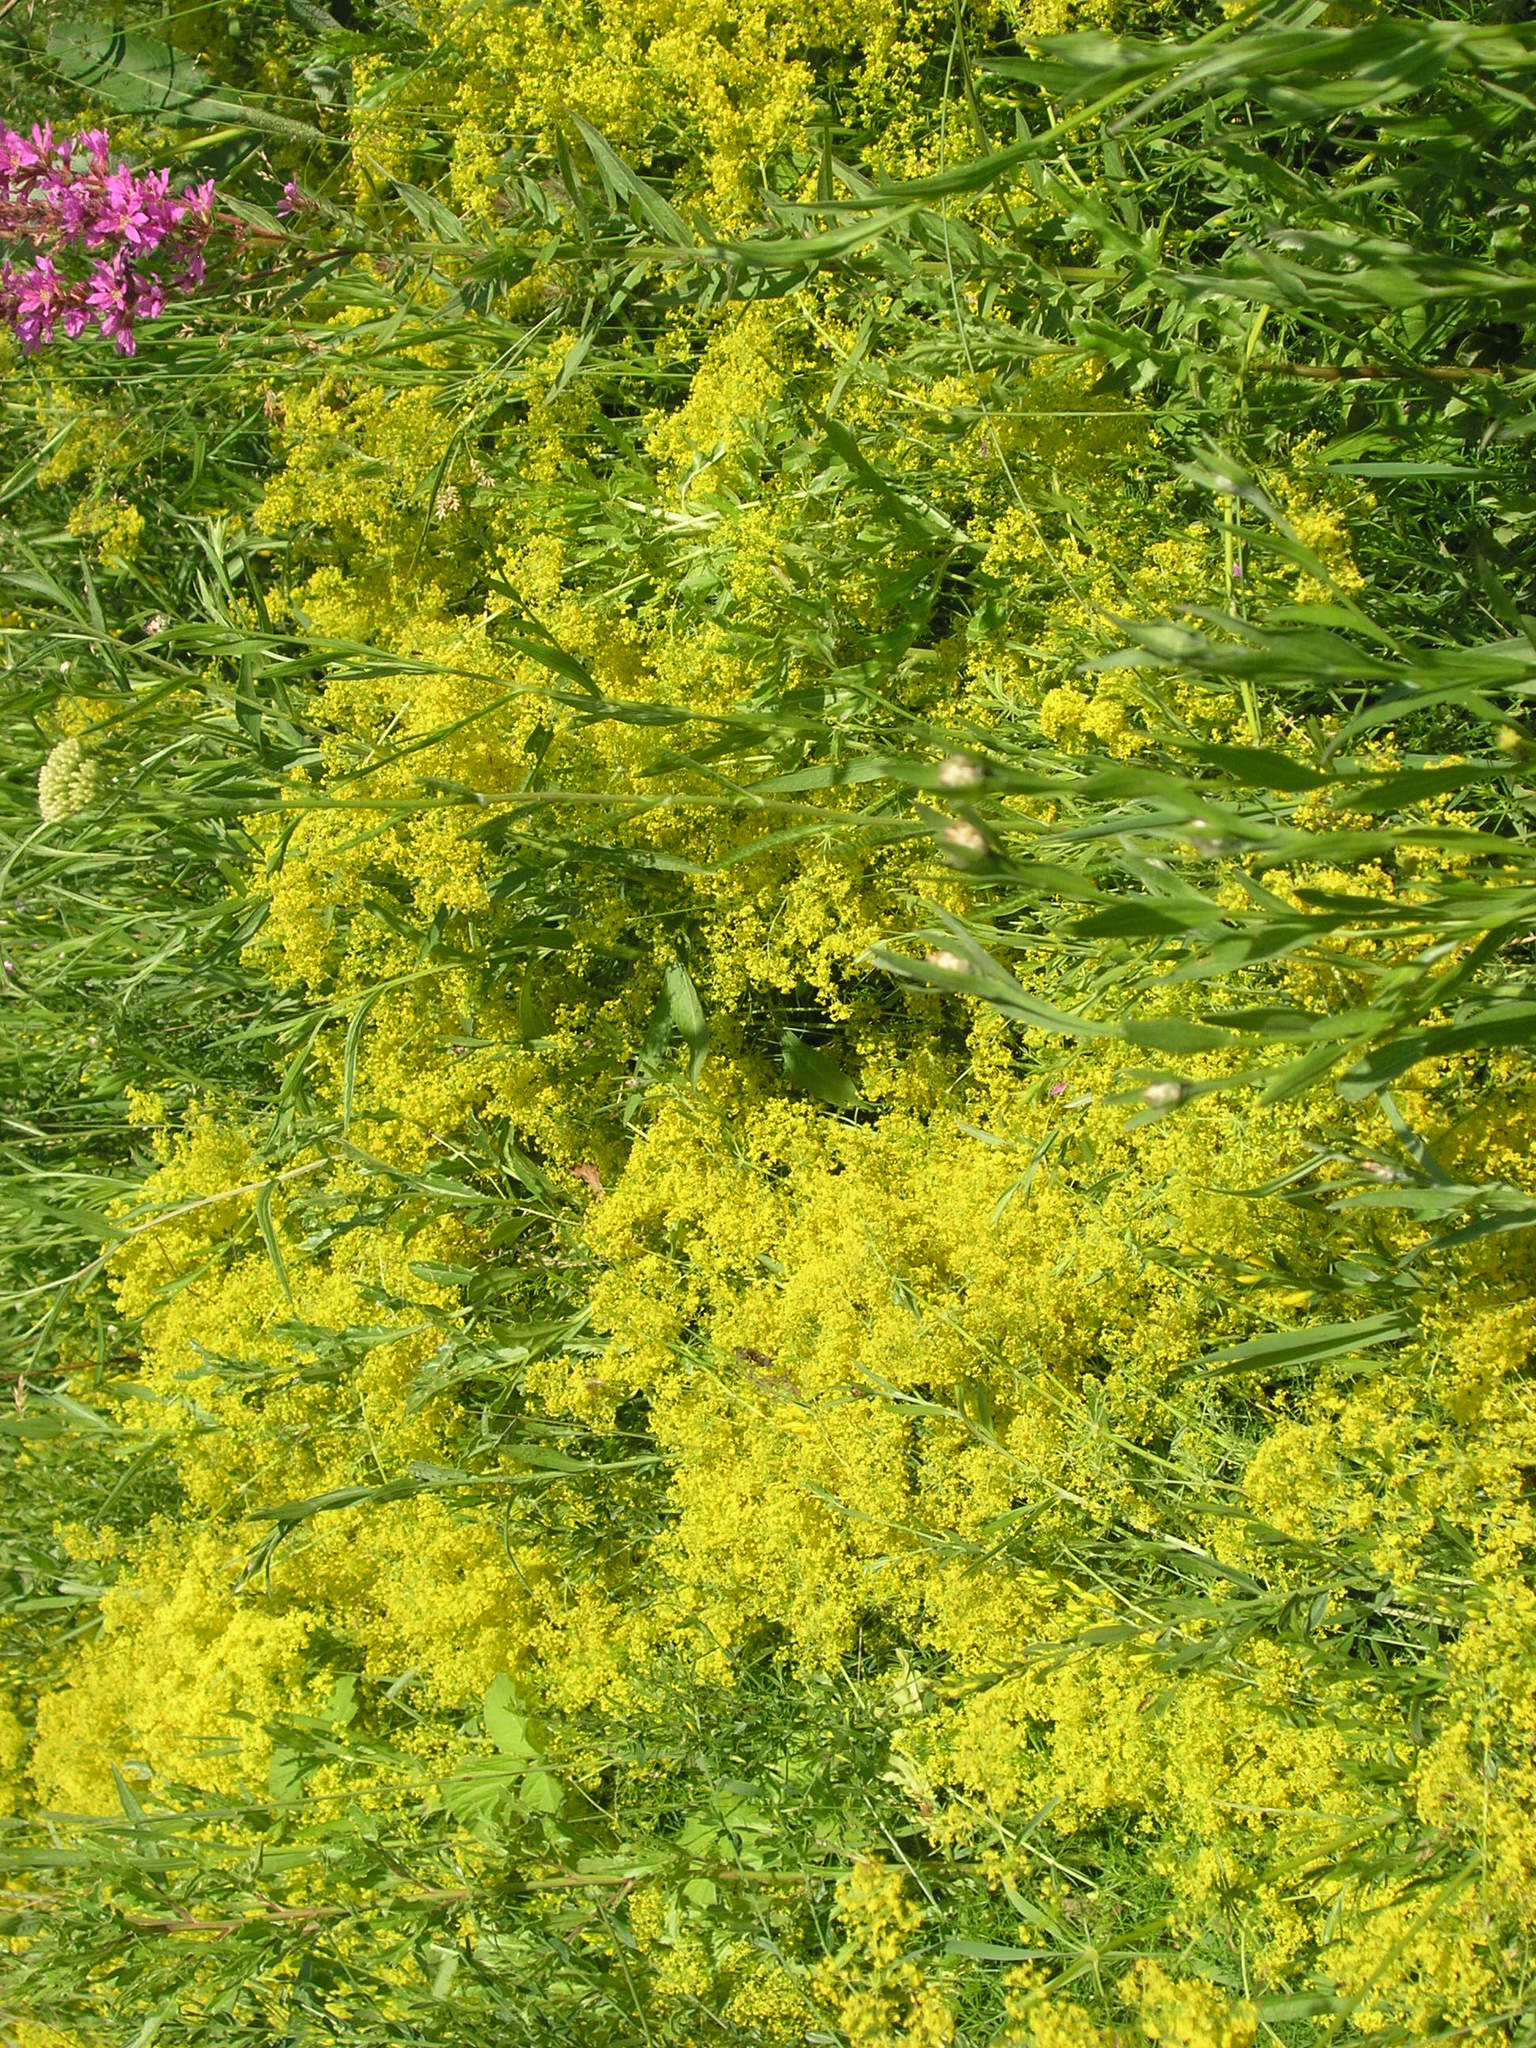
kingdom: Plantae
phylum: Tracheophyta
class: Magnoliopsida
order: Gentianales
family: Rubiaceae
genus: Galium
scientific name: Galium verum
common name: Lady's bedstraw
